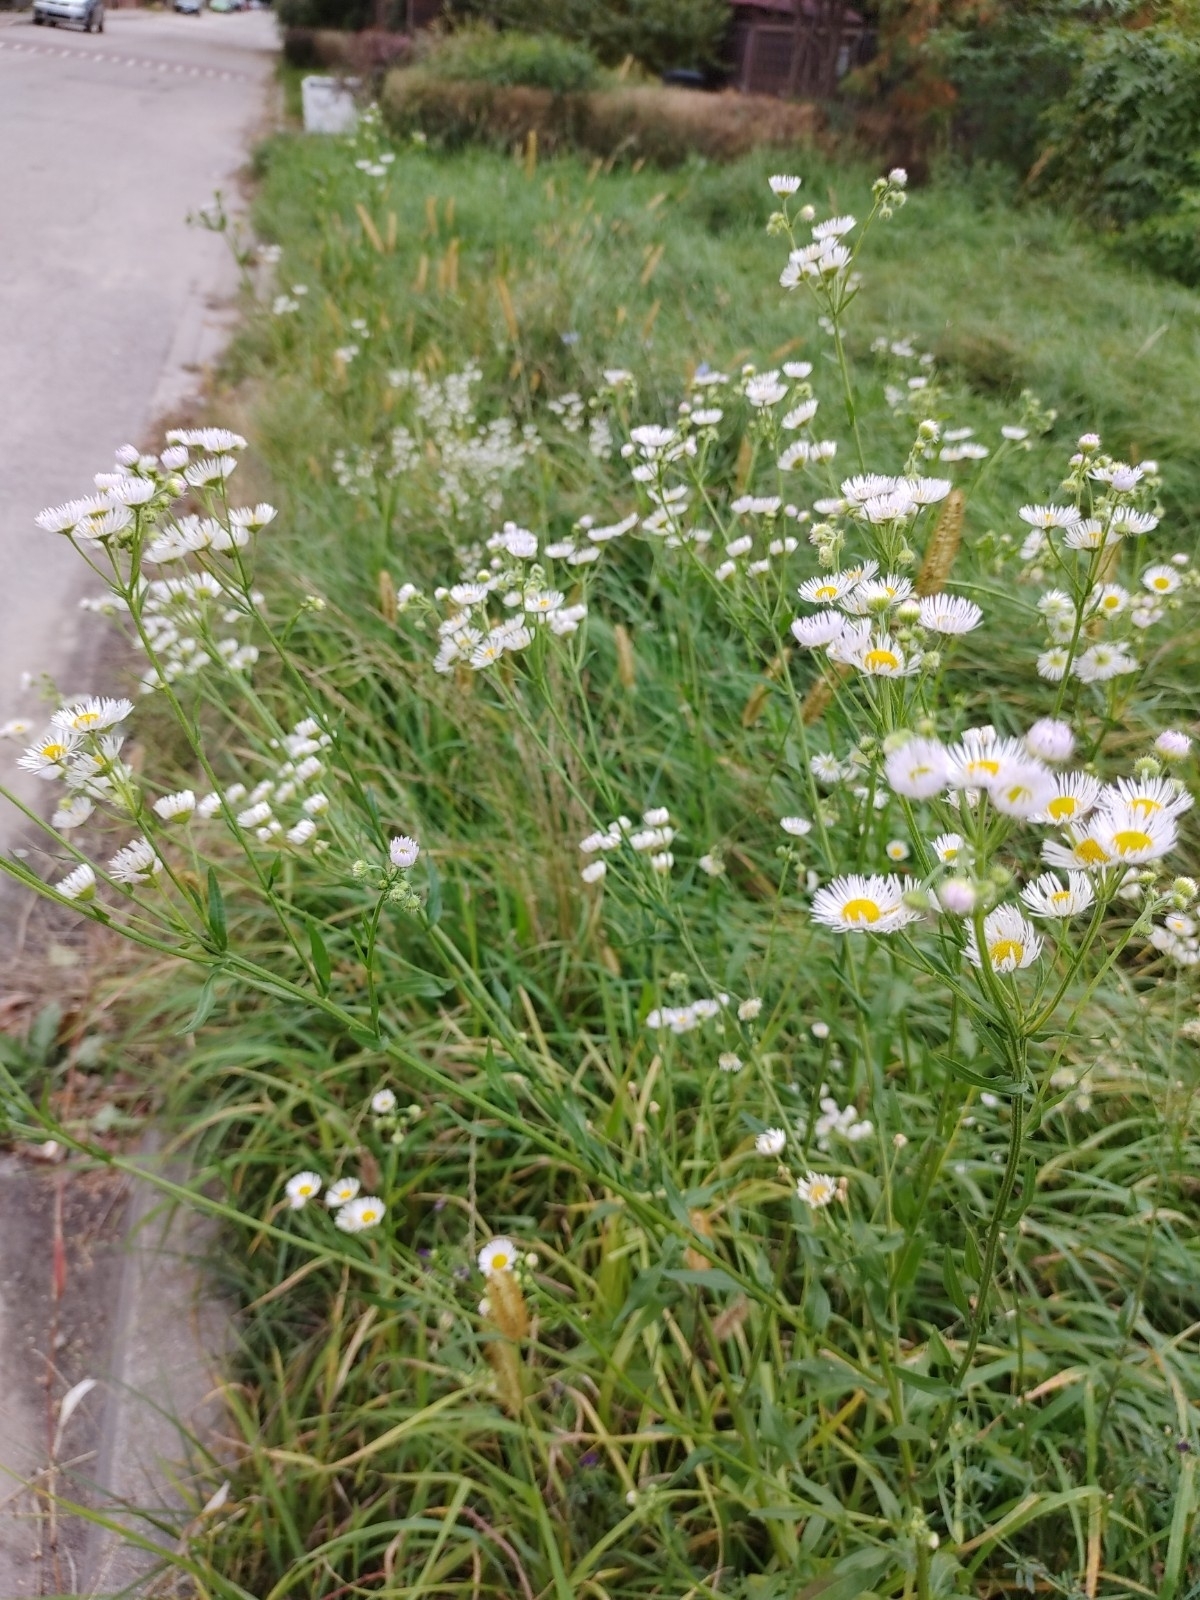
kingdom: Plantae
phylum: Tracheophyta
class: Magnoliopsida
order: Asterales
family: Asteraceae
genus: Erigeron
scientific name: Erigeron annuus
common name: Tall fleabane
